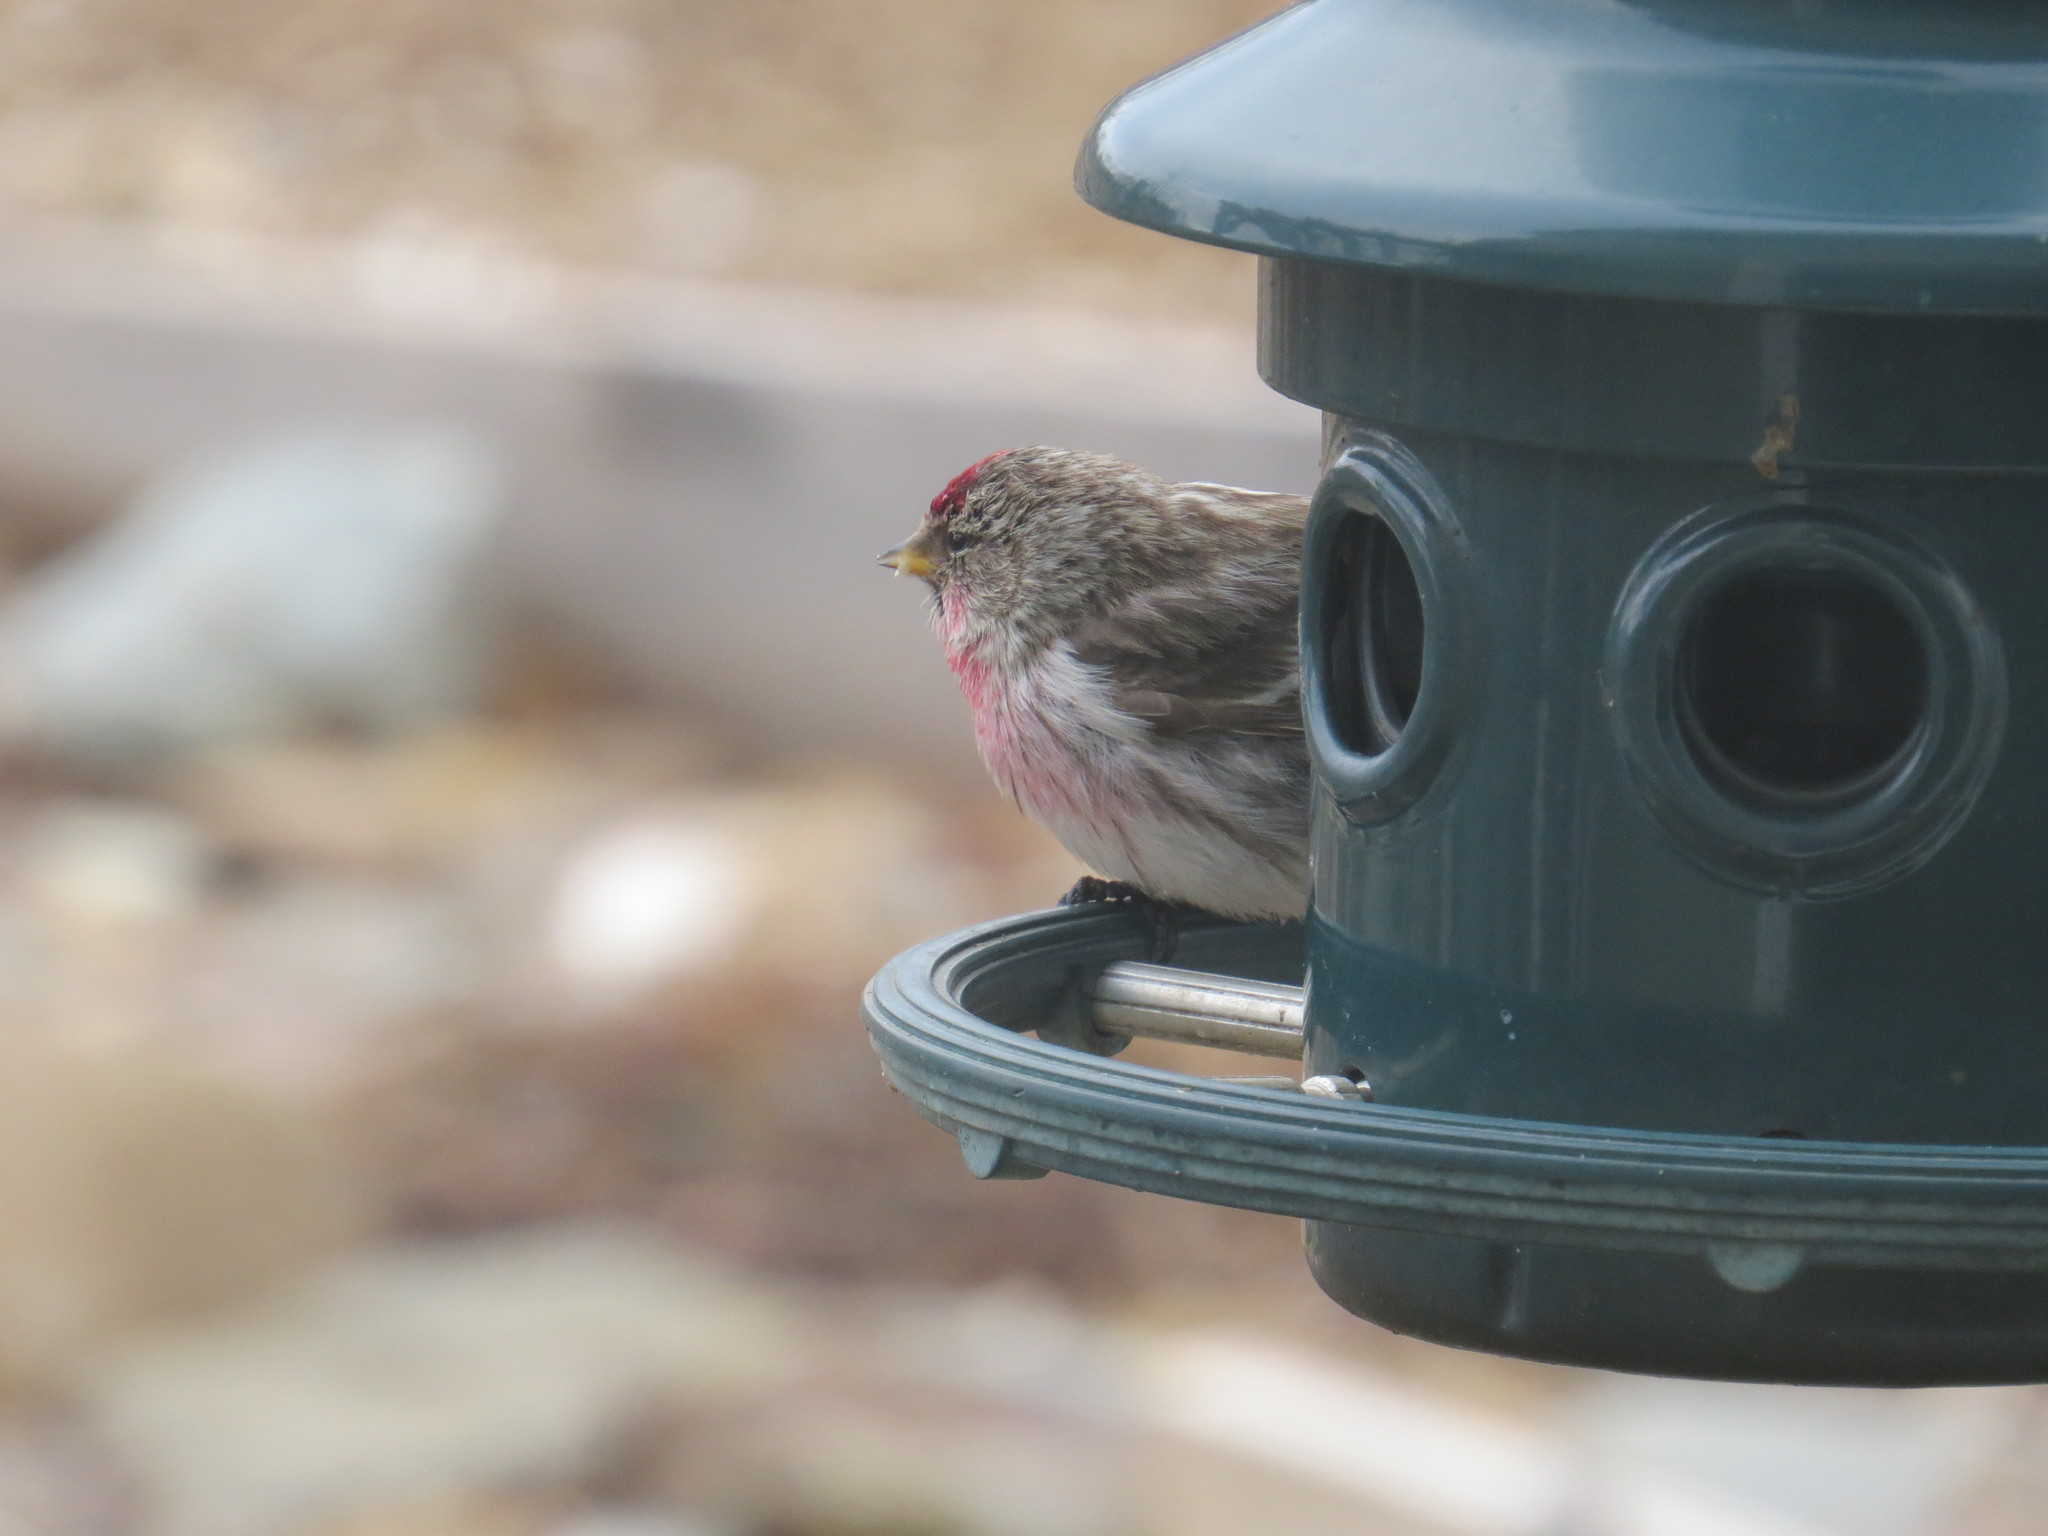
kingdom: Animalia
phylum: Chordata
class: Aves
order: Passeriformes
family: Fringillidae
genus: Acanthis
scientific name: Acanthis flammea
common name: Common redpoll
